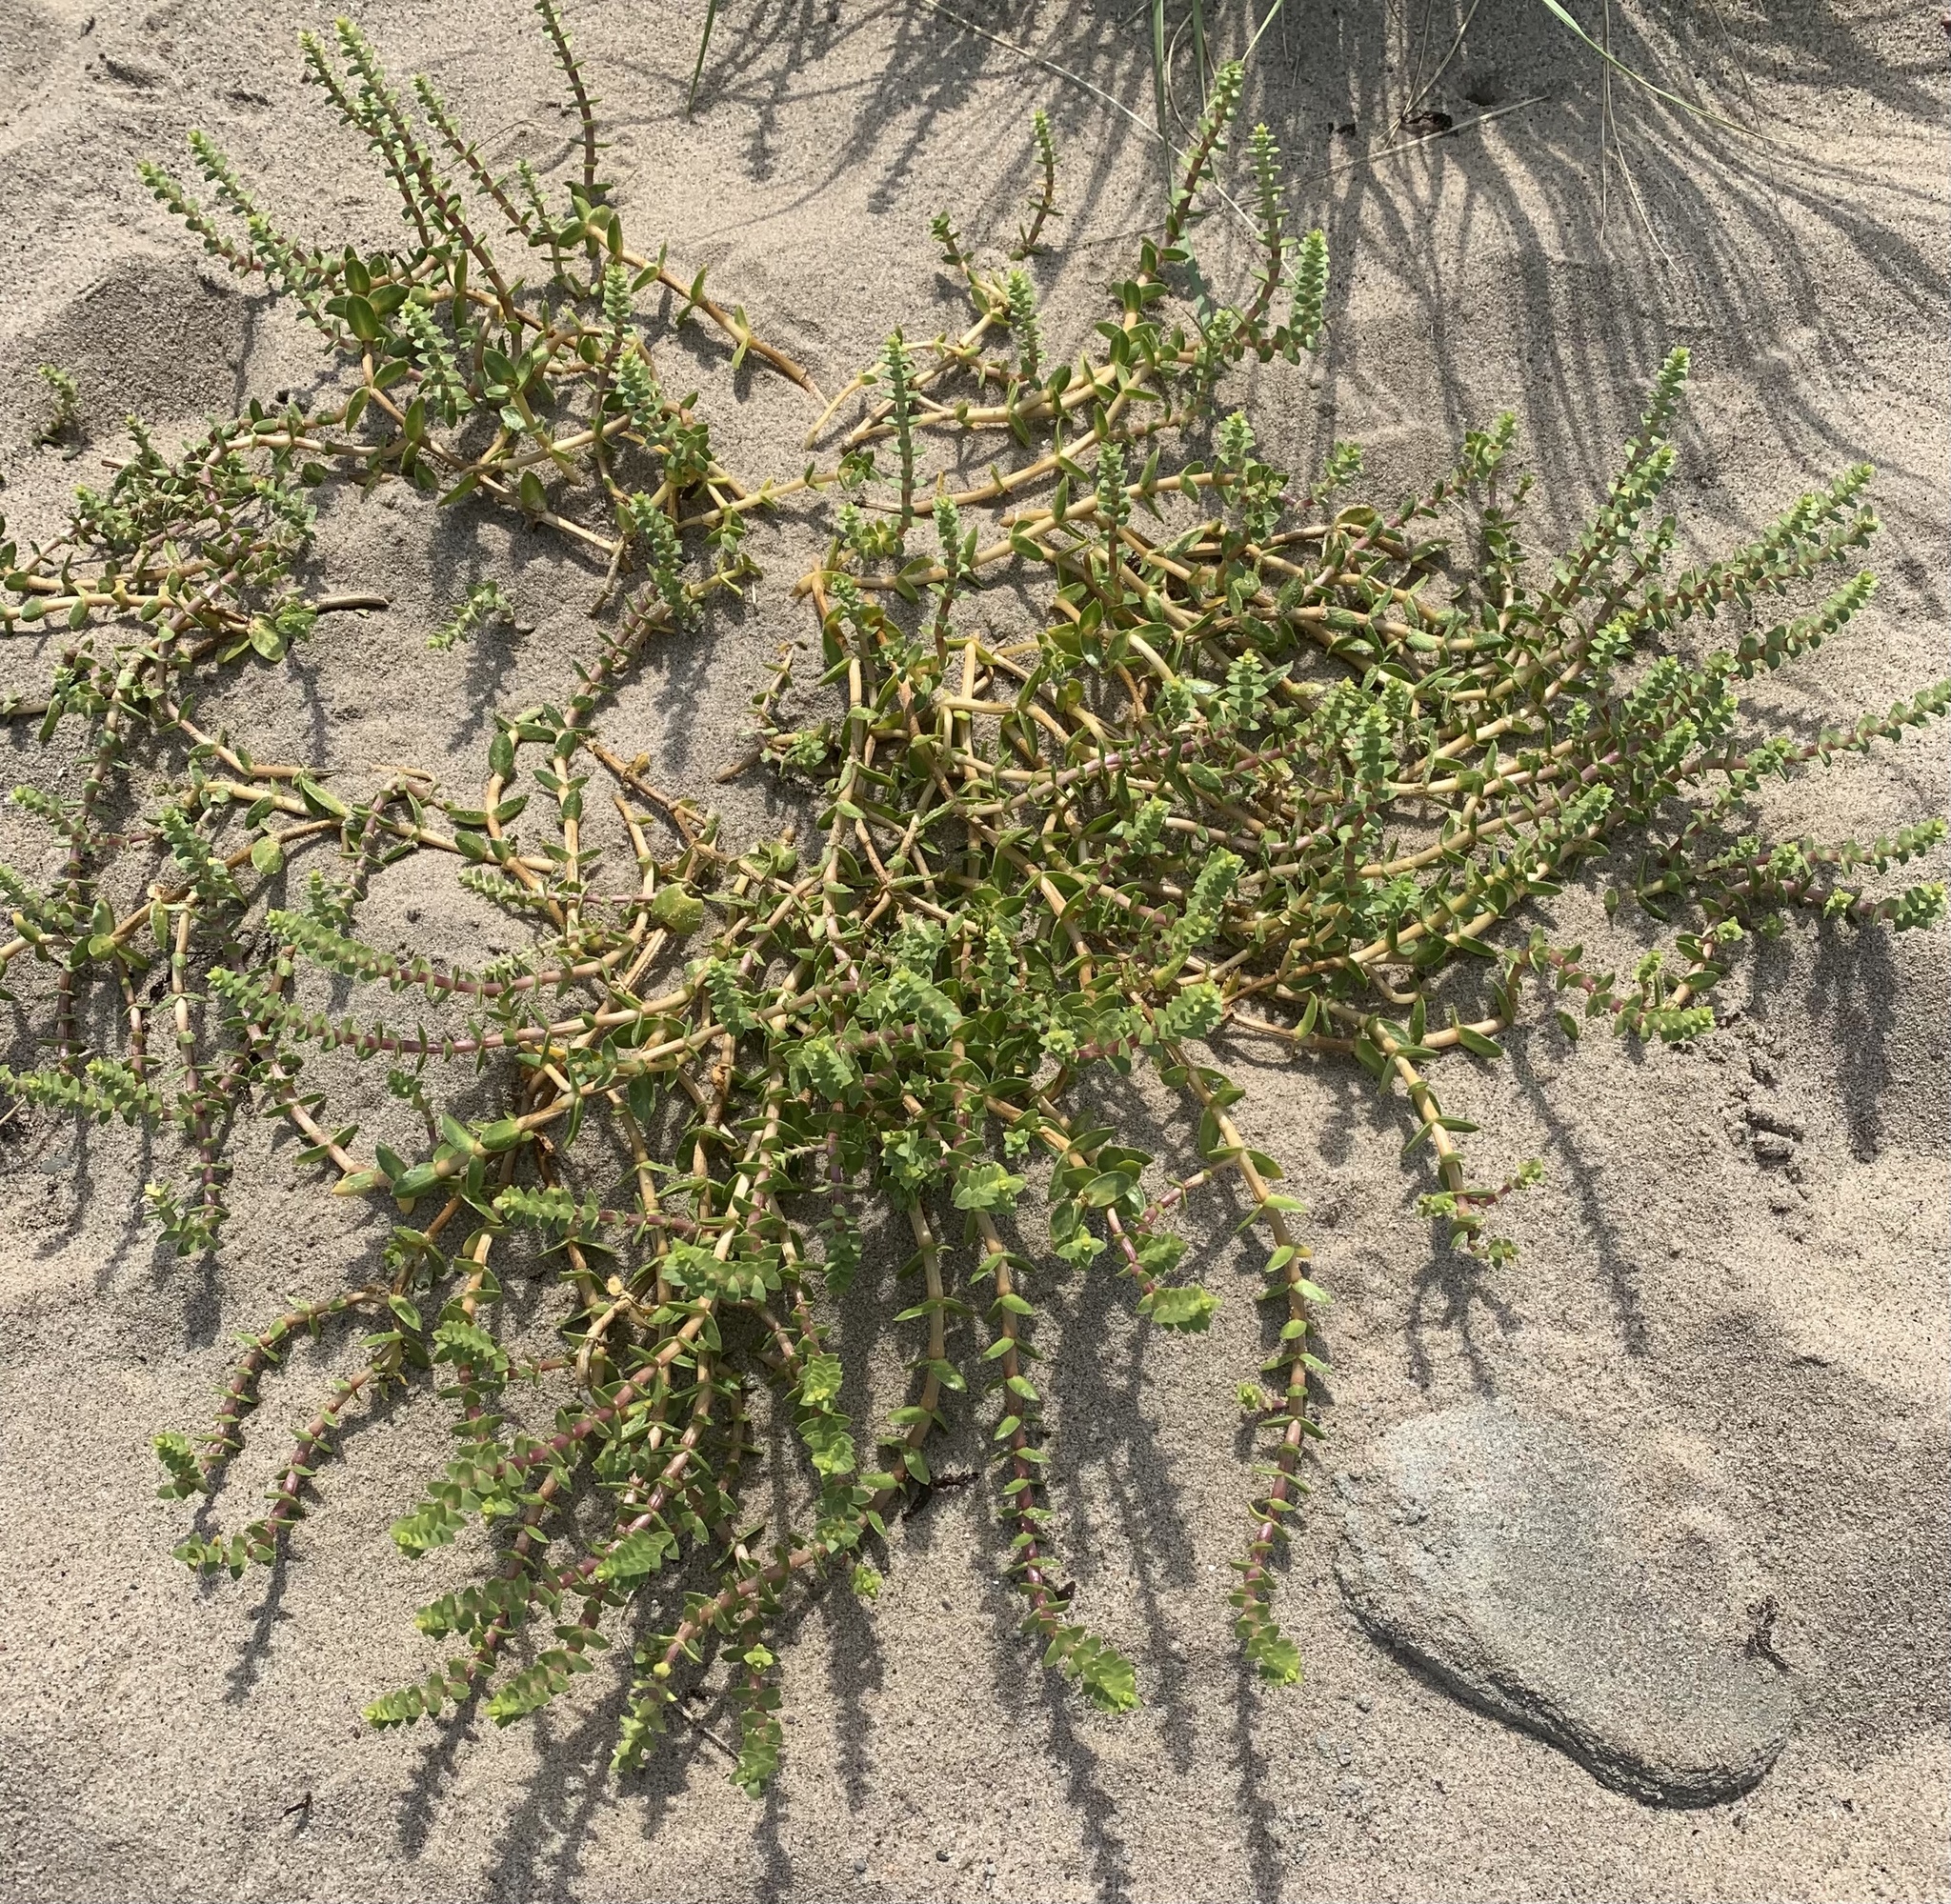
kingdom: Plantae
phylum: Tracheophyta
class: Magnoliopsida
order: Caryophyllales
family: Caryophyllaceae
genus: Honckenya
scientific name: Honckenya peploides
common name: Sea sandwort
